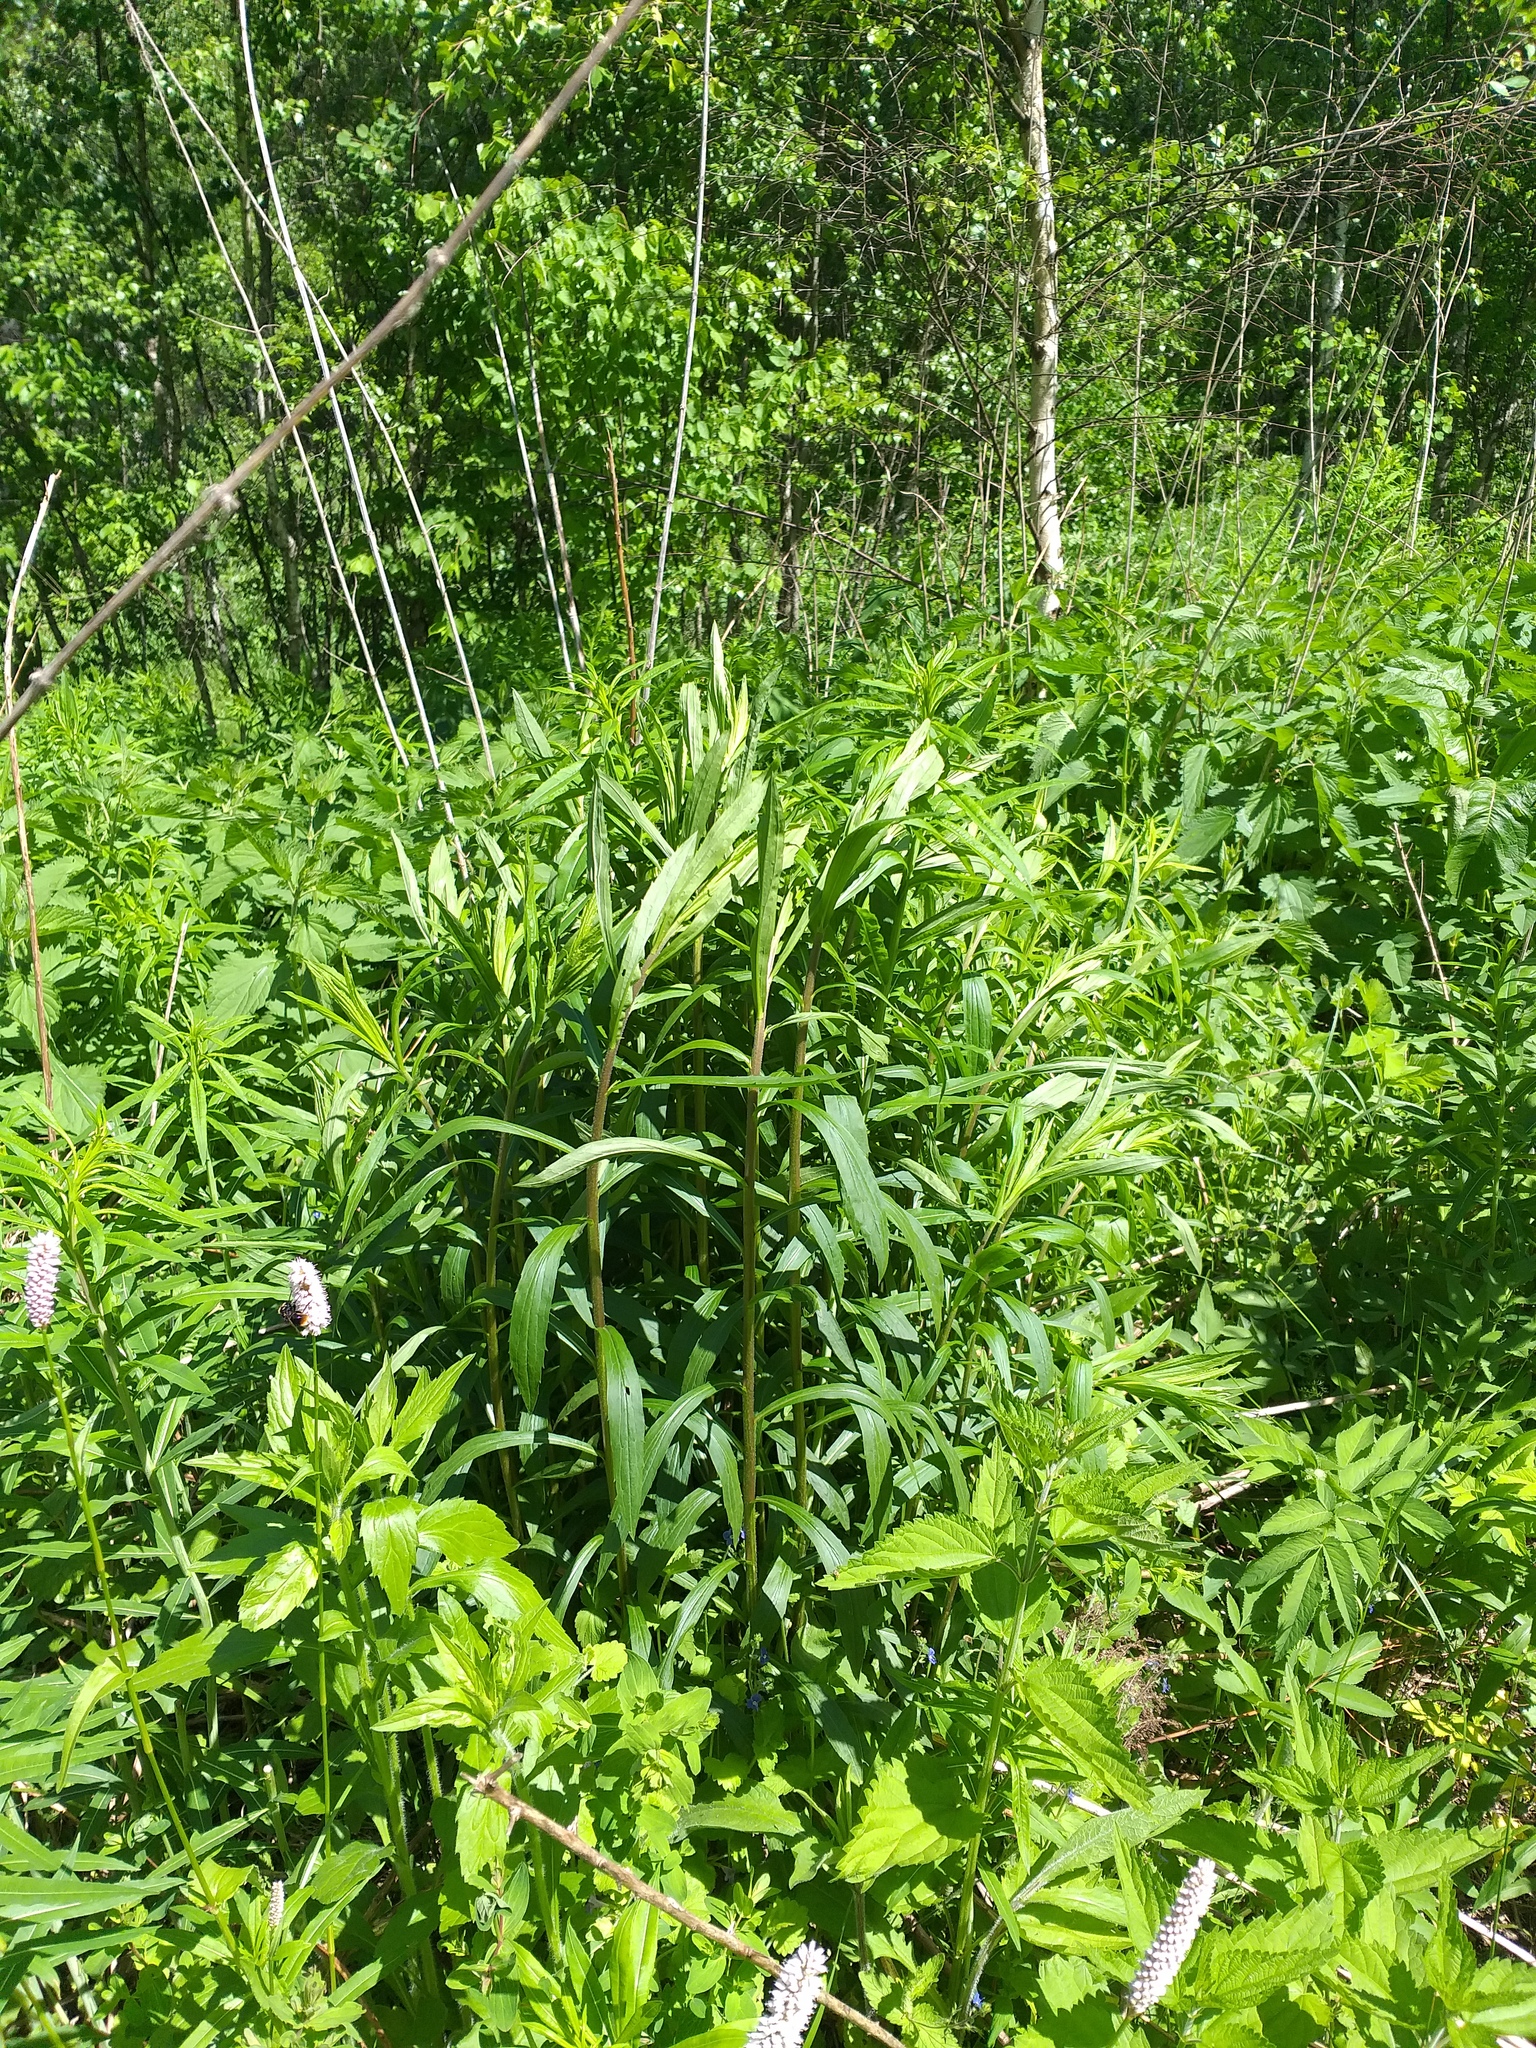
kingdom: Plantae
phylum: Tracheophyta
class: Magnoliopsida
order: Asterales
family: Asteraceae
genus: Solidago
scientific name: Solidago canadensis
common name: Canada goldenrod
